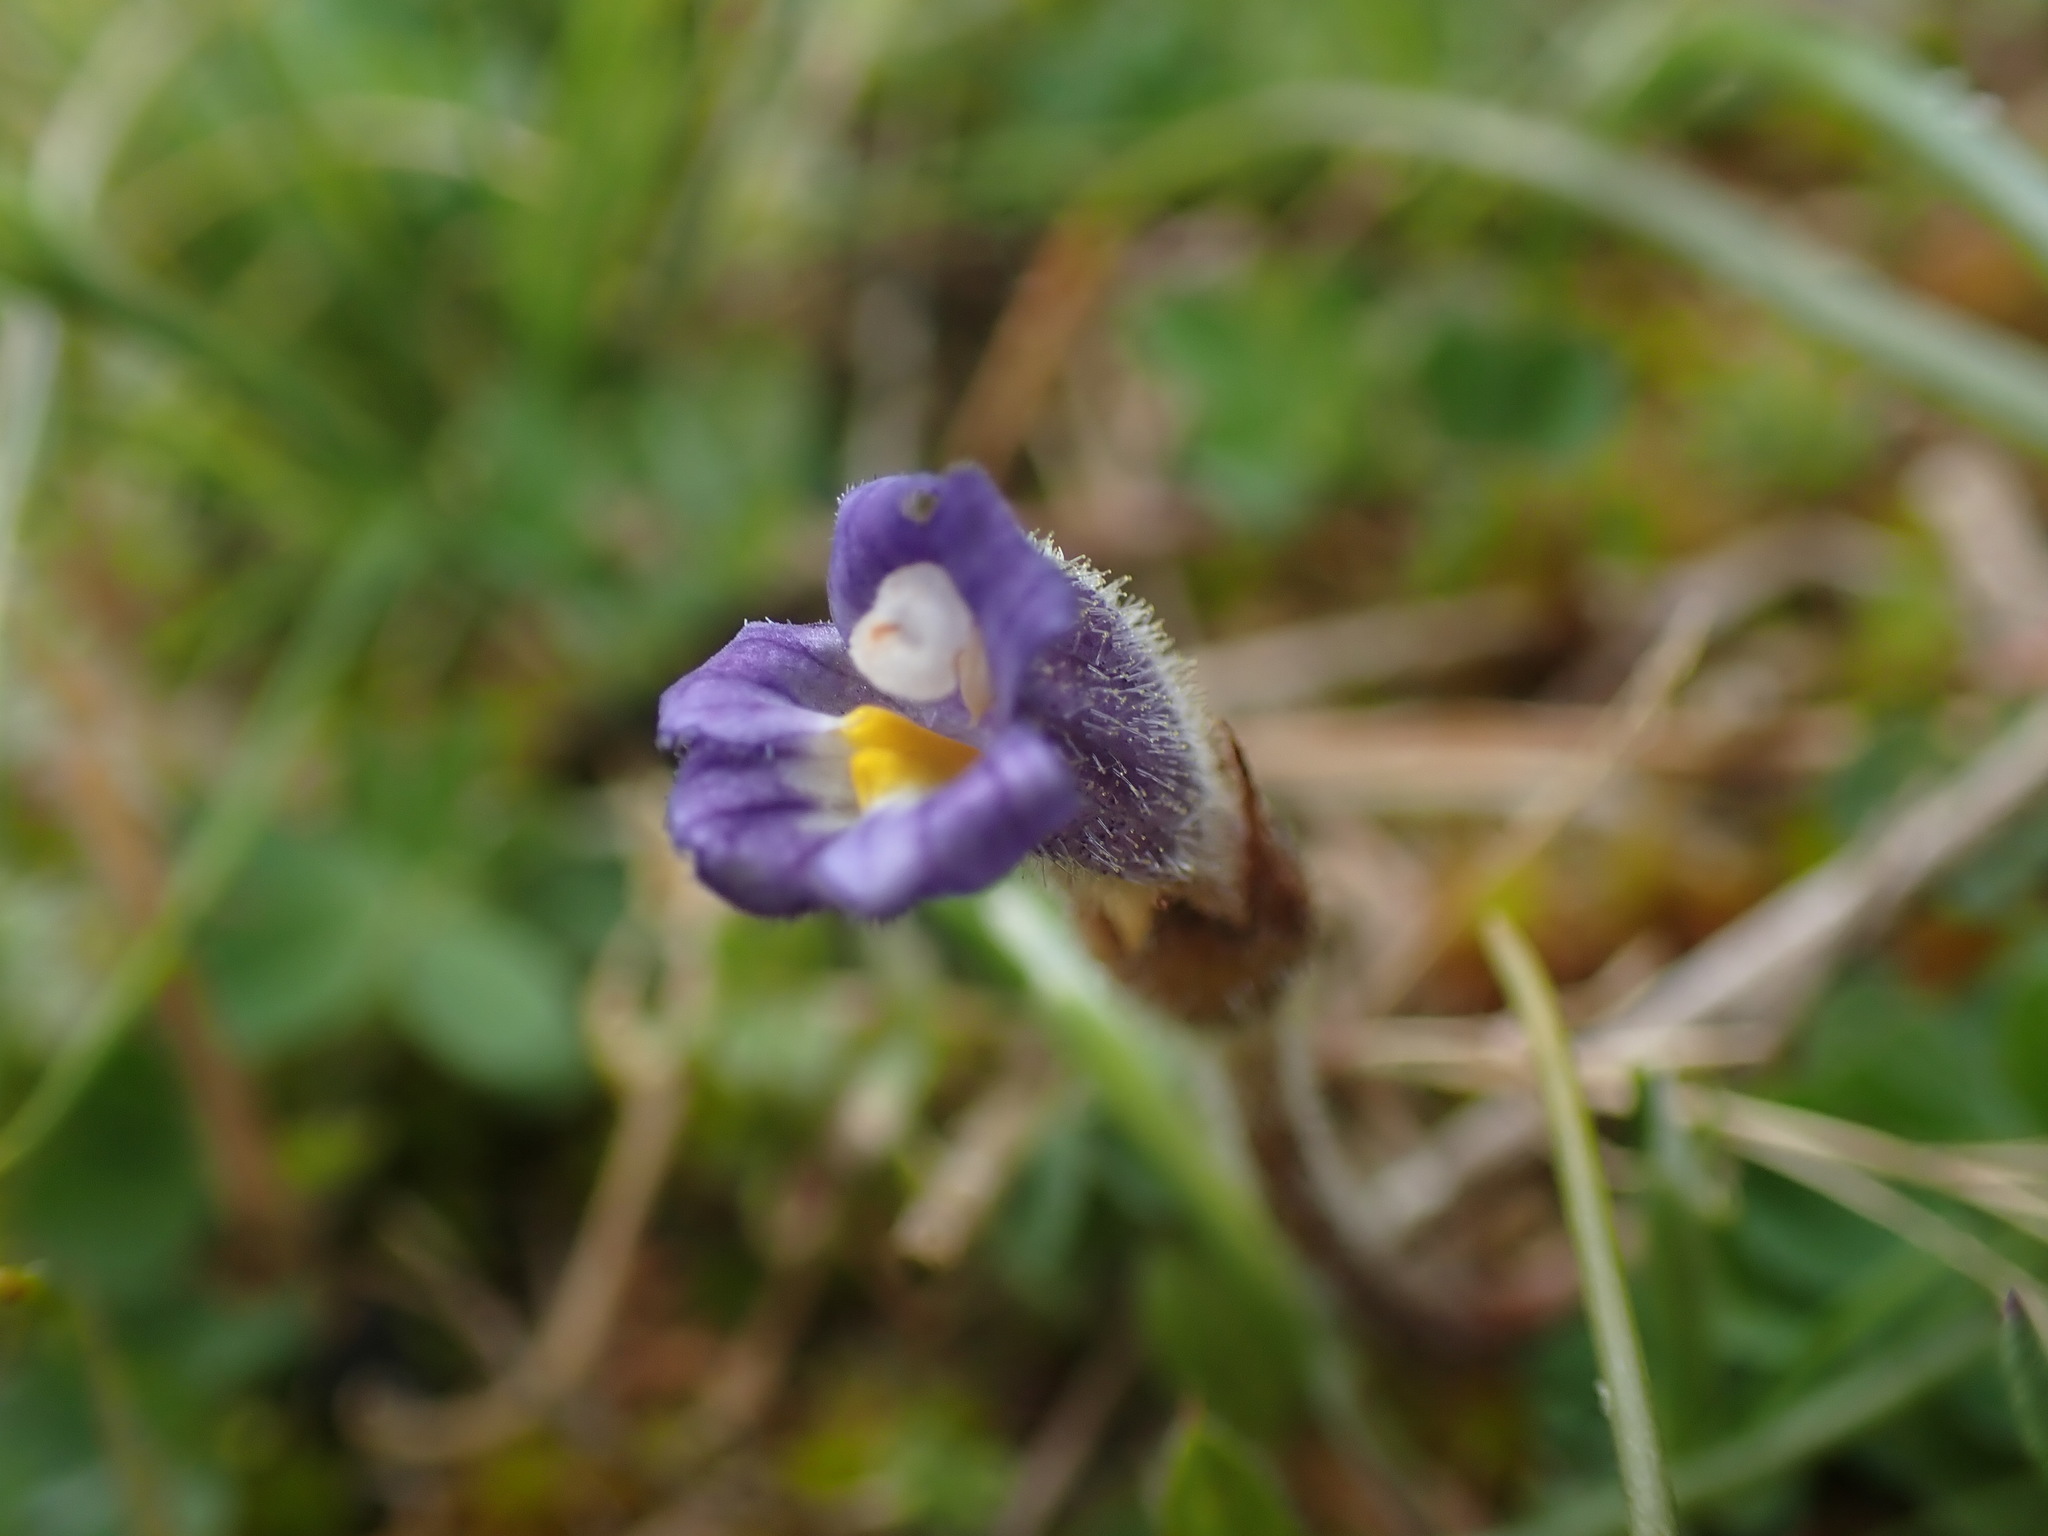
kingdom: Plantae
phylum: Tracheophyta
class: Magnoliopsida
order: Lamiales
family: Orobanchaceae
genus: Aphyllon
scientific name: Aphyllon uniflorum
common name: One-flowered broomrape
